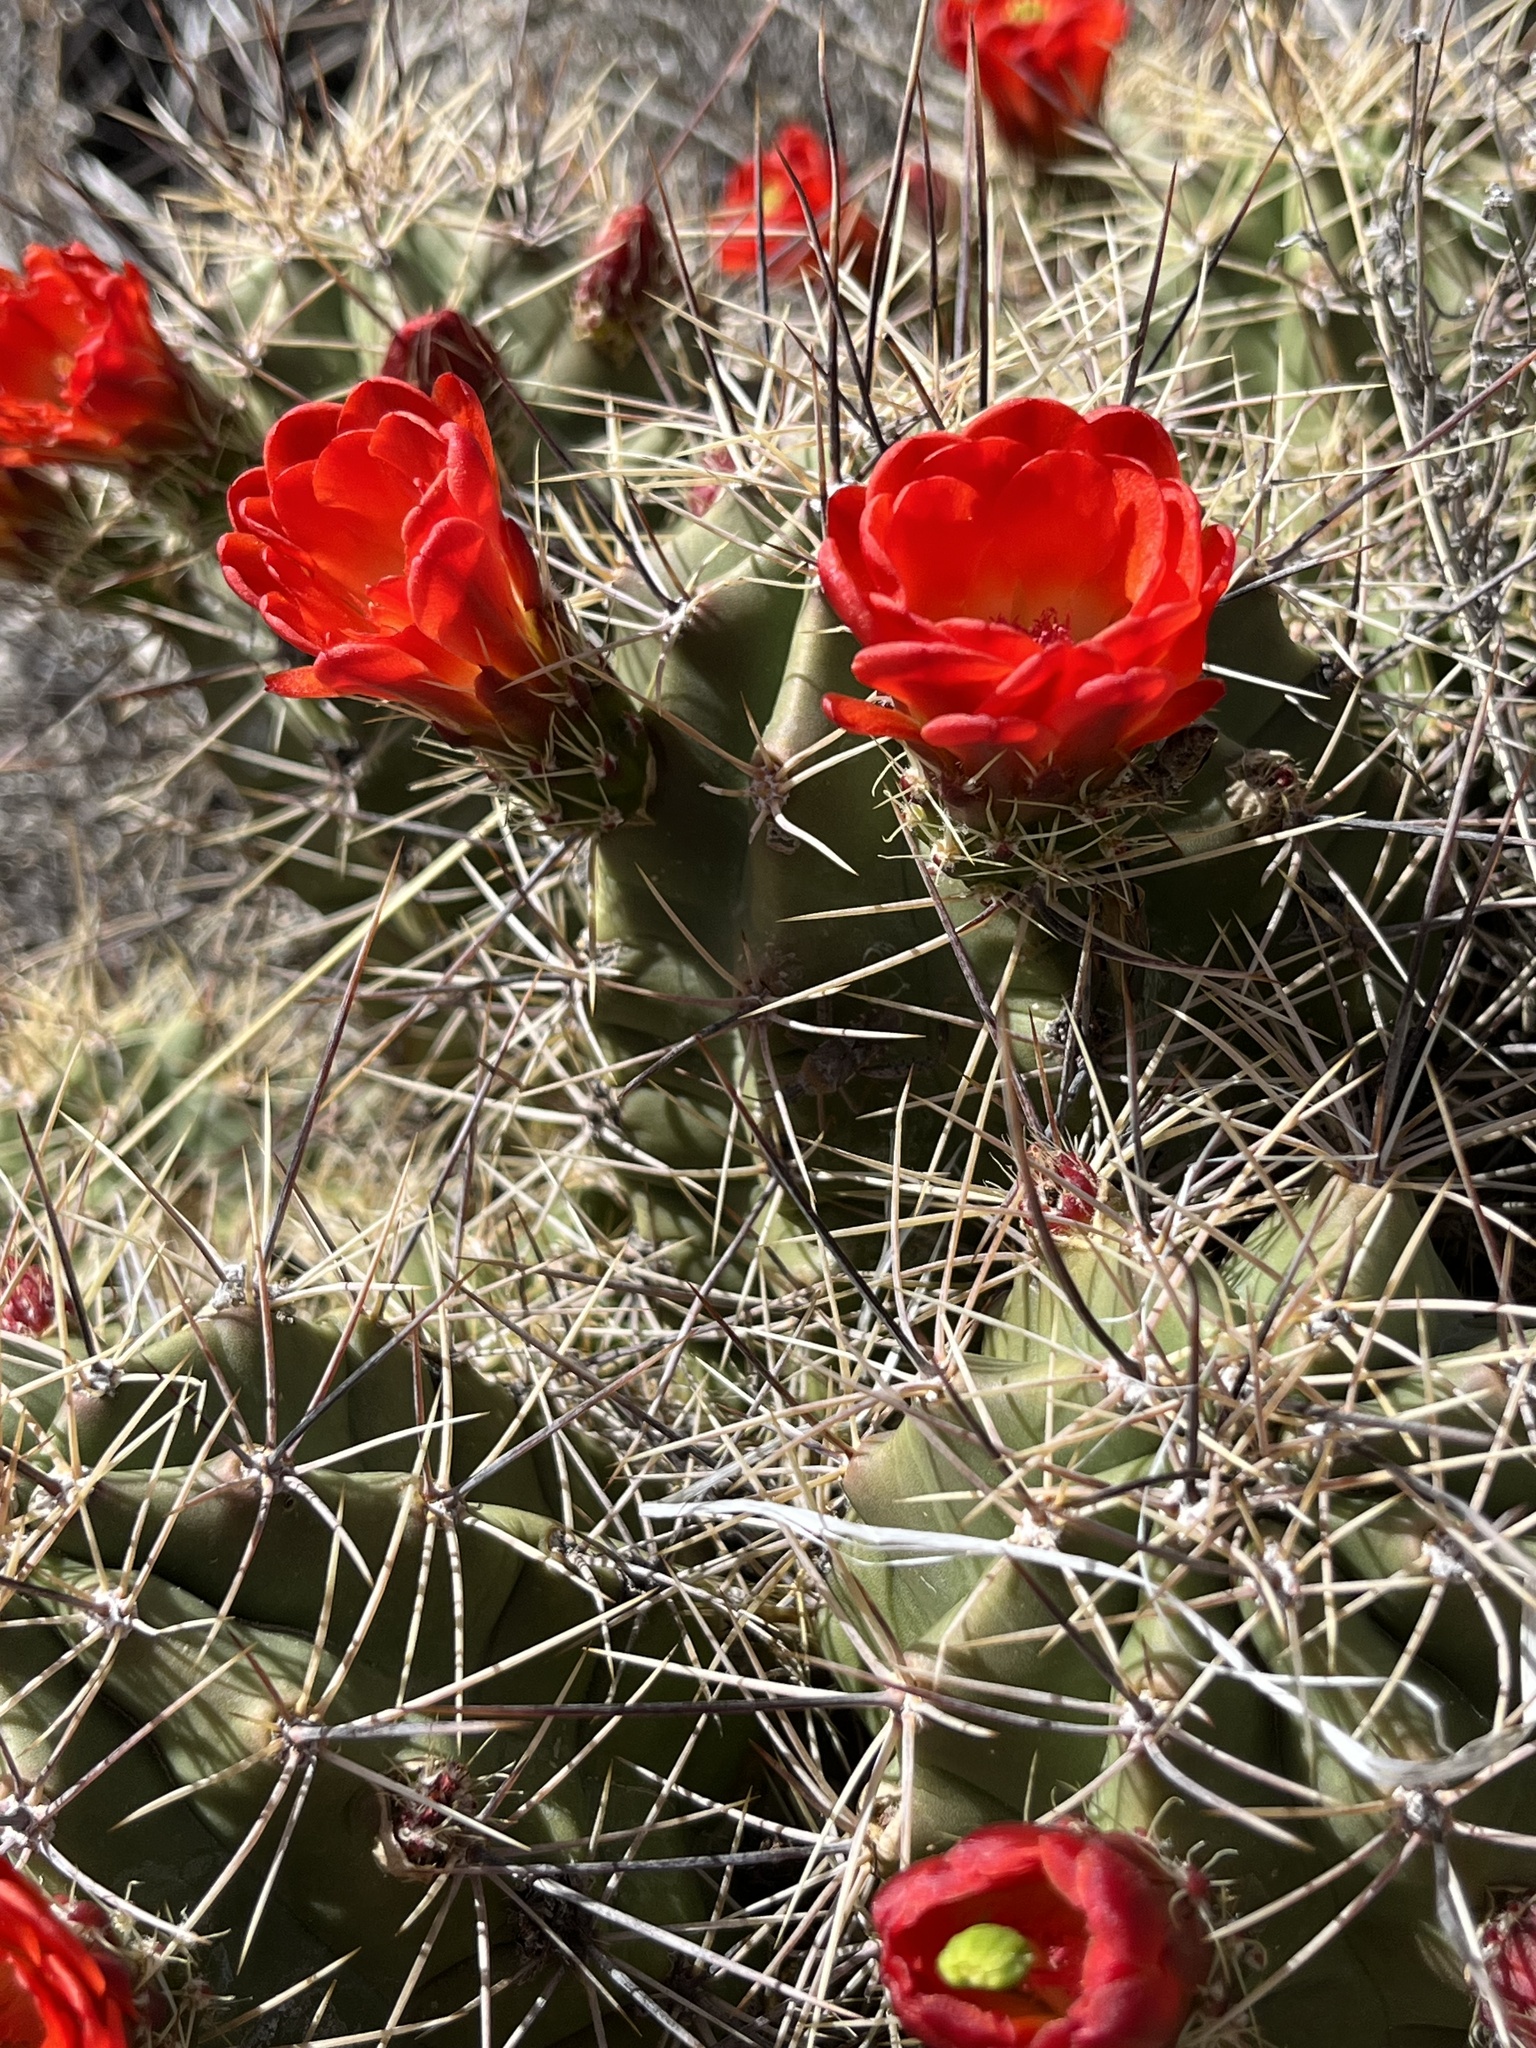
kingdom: Plantae
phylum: Tracheophyta
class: Magnoliopsida
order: Caryophyllales
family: Cactaceae
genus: Echinocereus
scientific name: Echinocereus coccineus
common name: Scarlet hedgehog cactus
